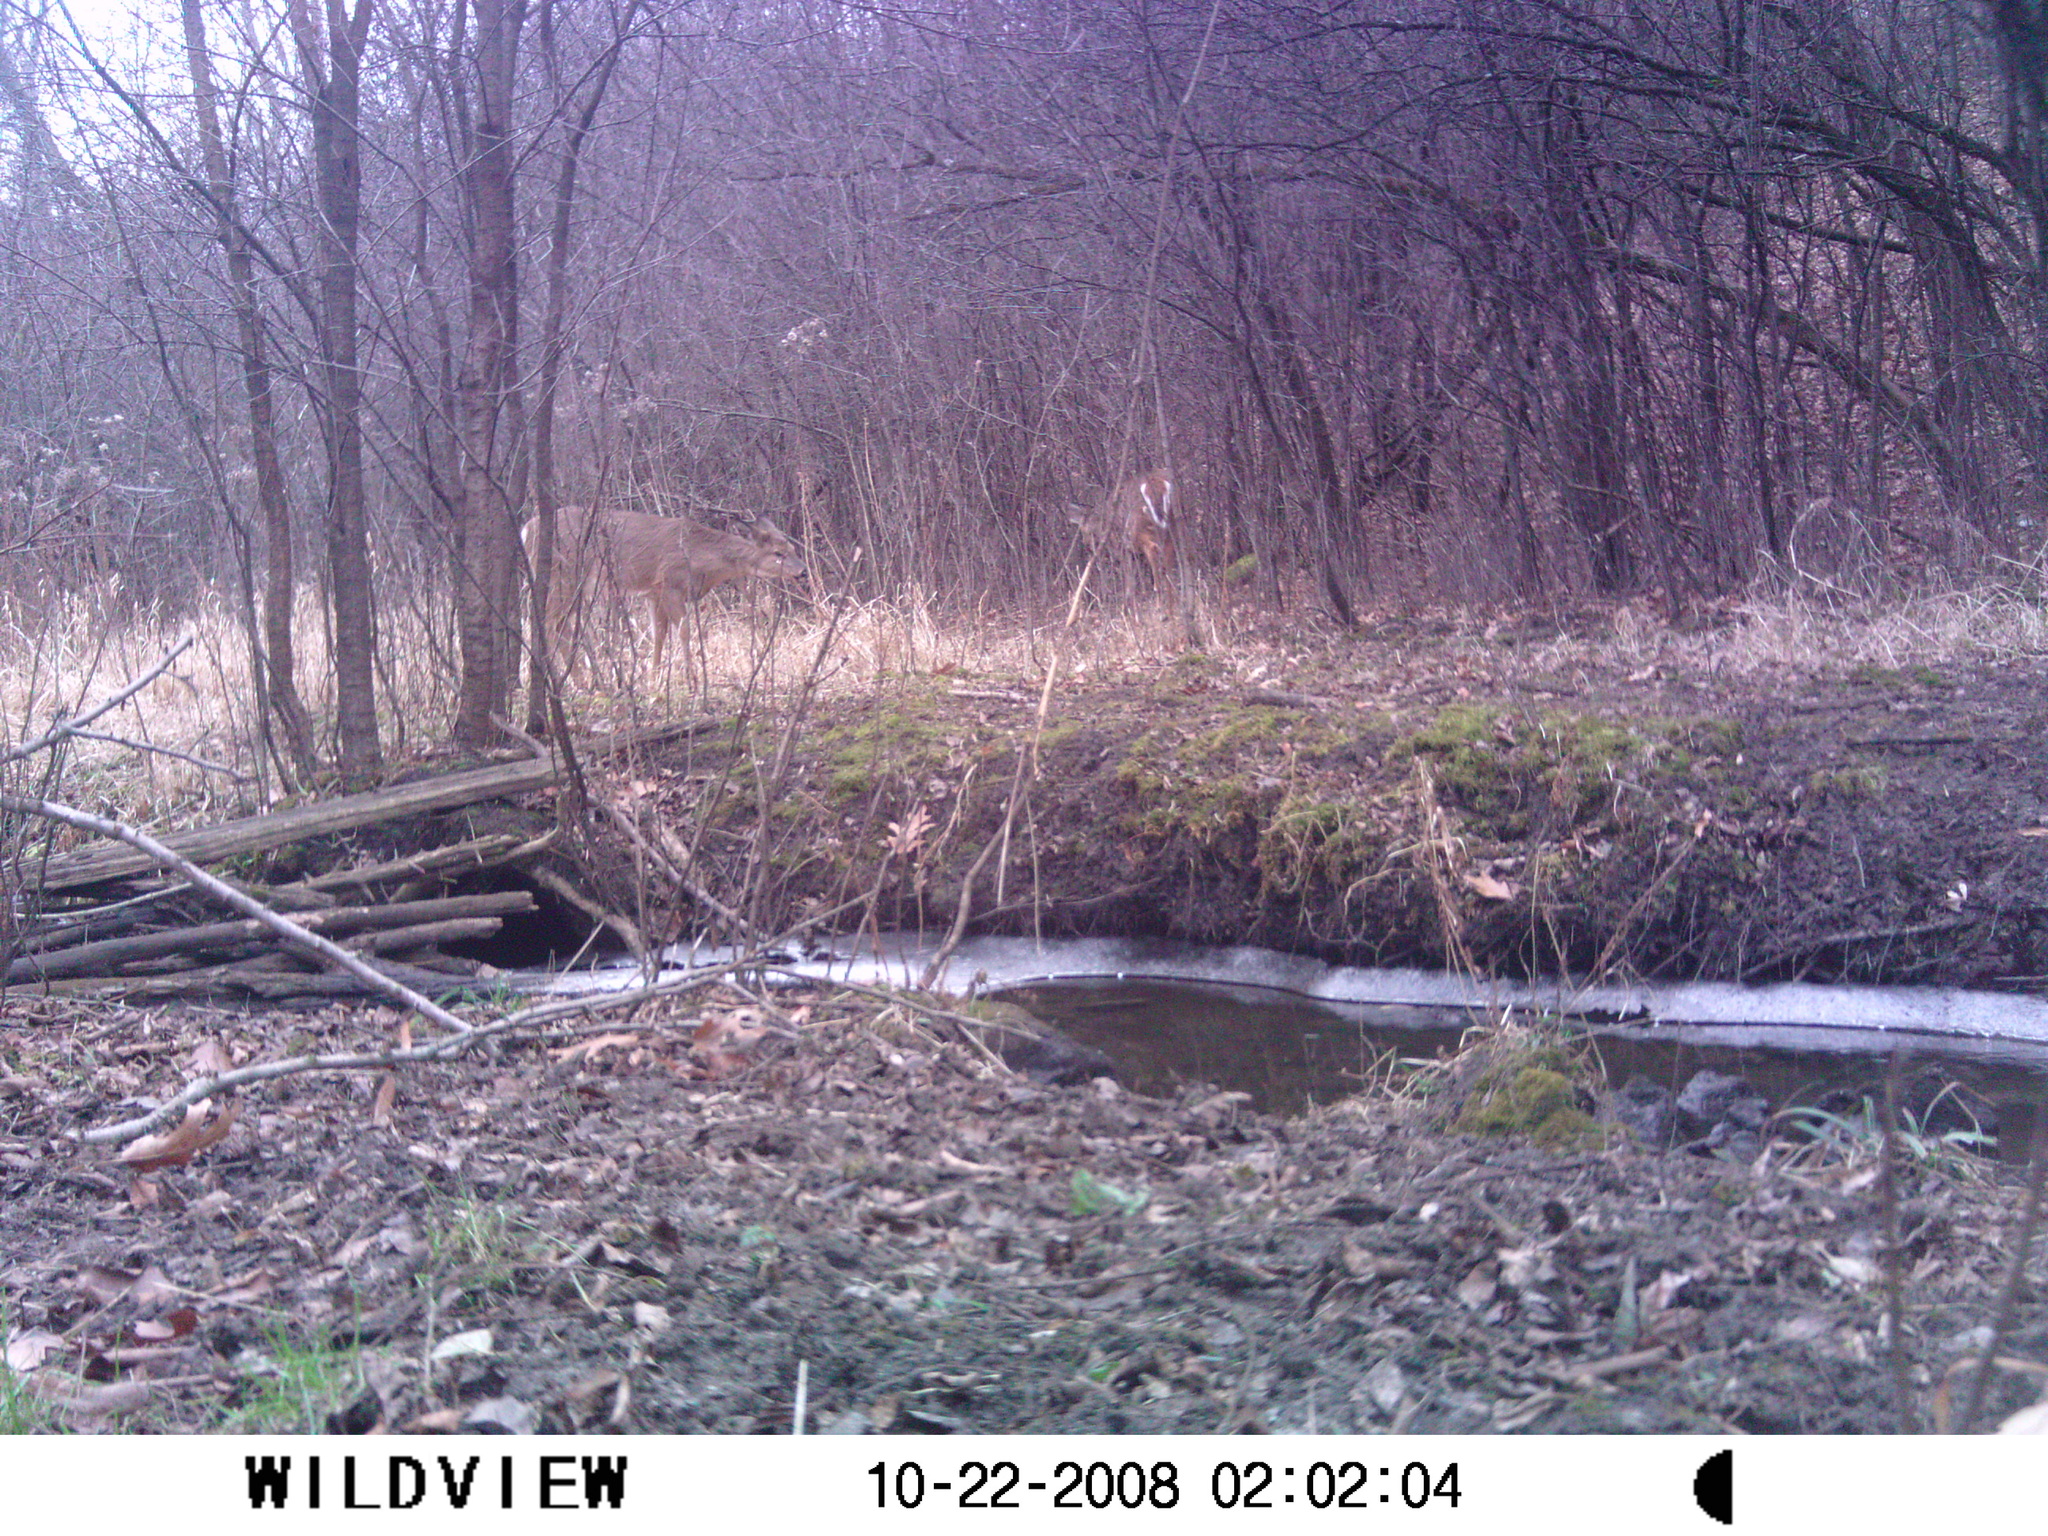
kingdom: Animalia
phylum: Chordata
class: Mammalia
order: Artiodactyla
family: Cervidae
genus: Odocoileus
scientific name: Odocoileus virginianus
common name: White-tailed deer
